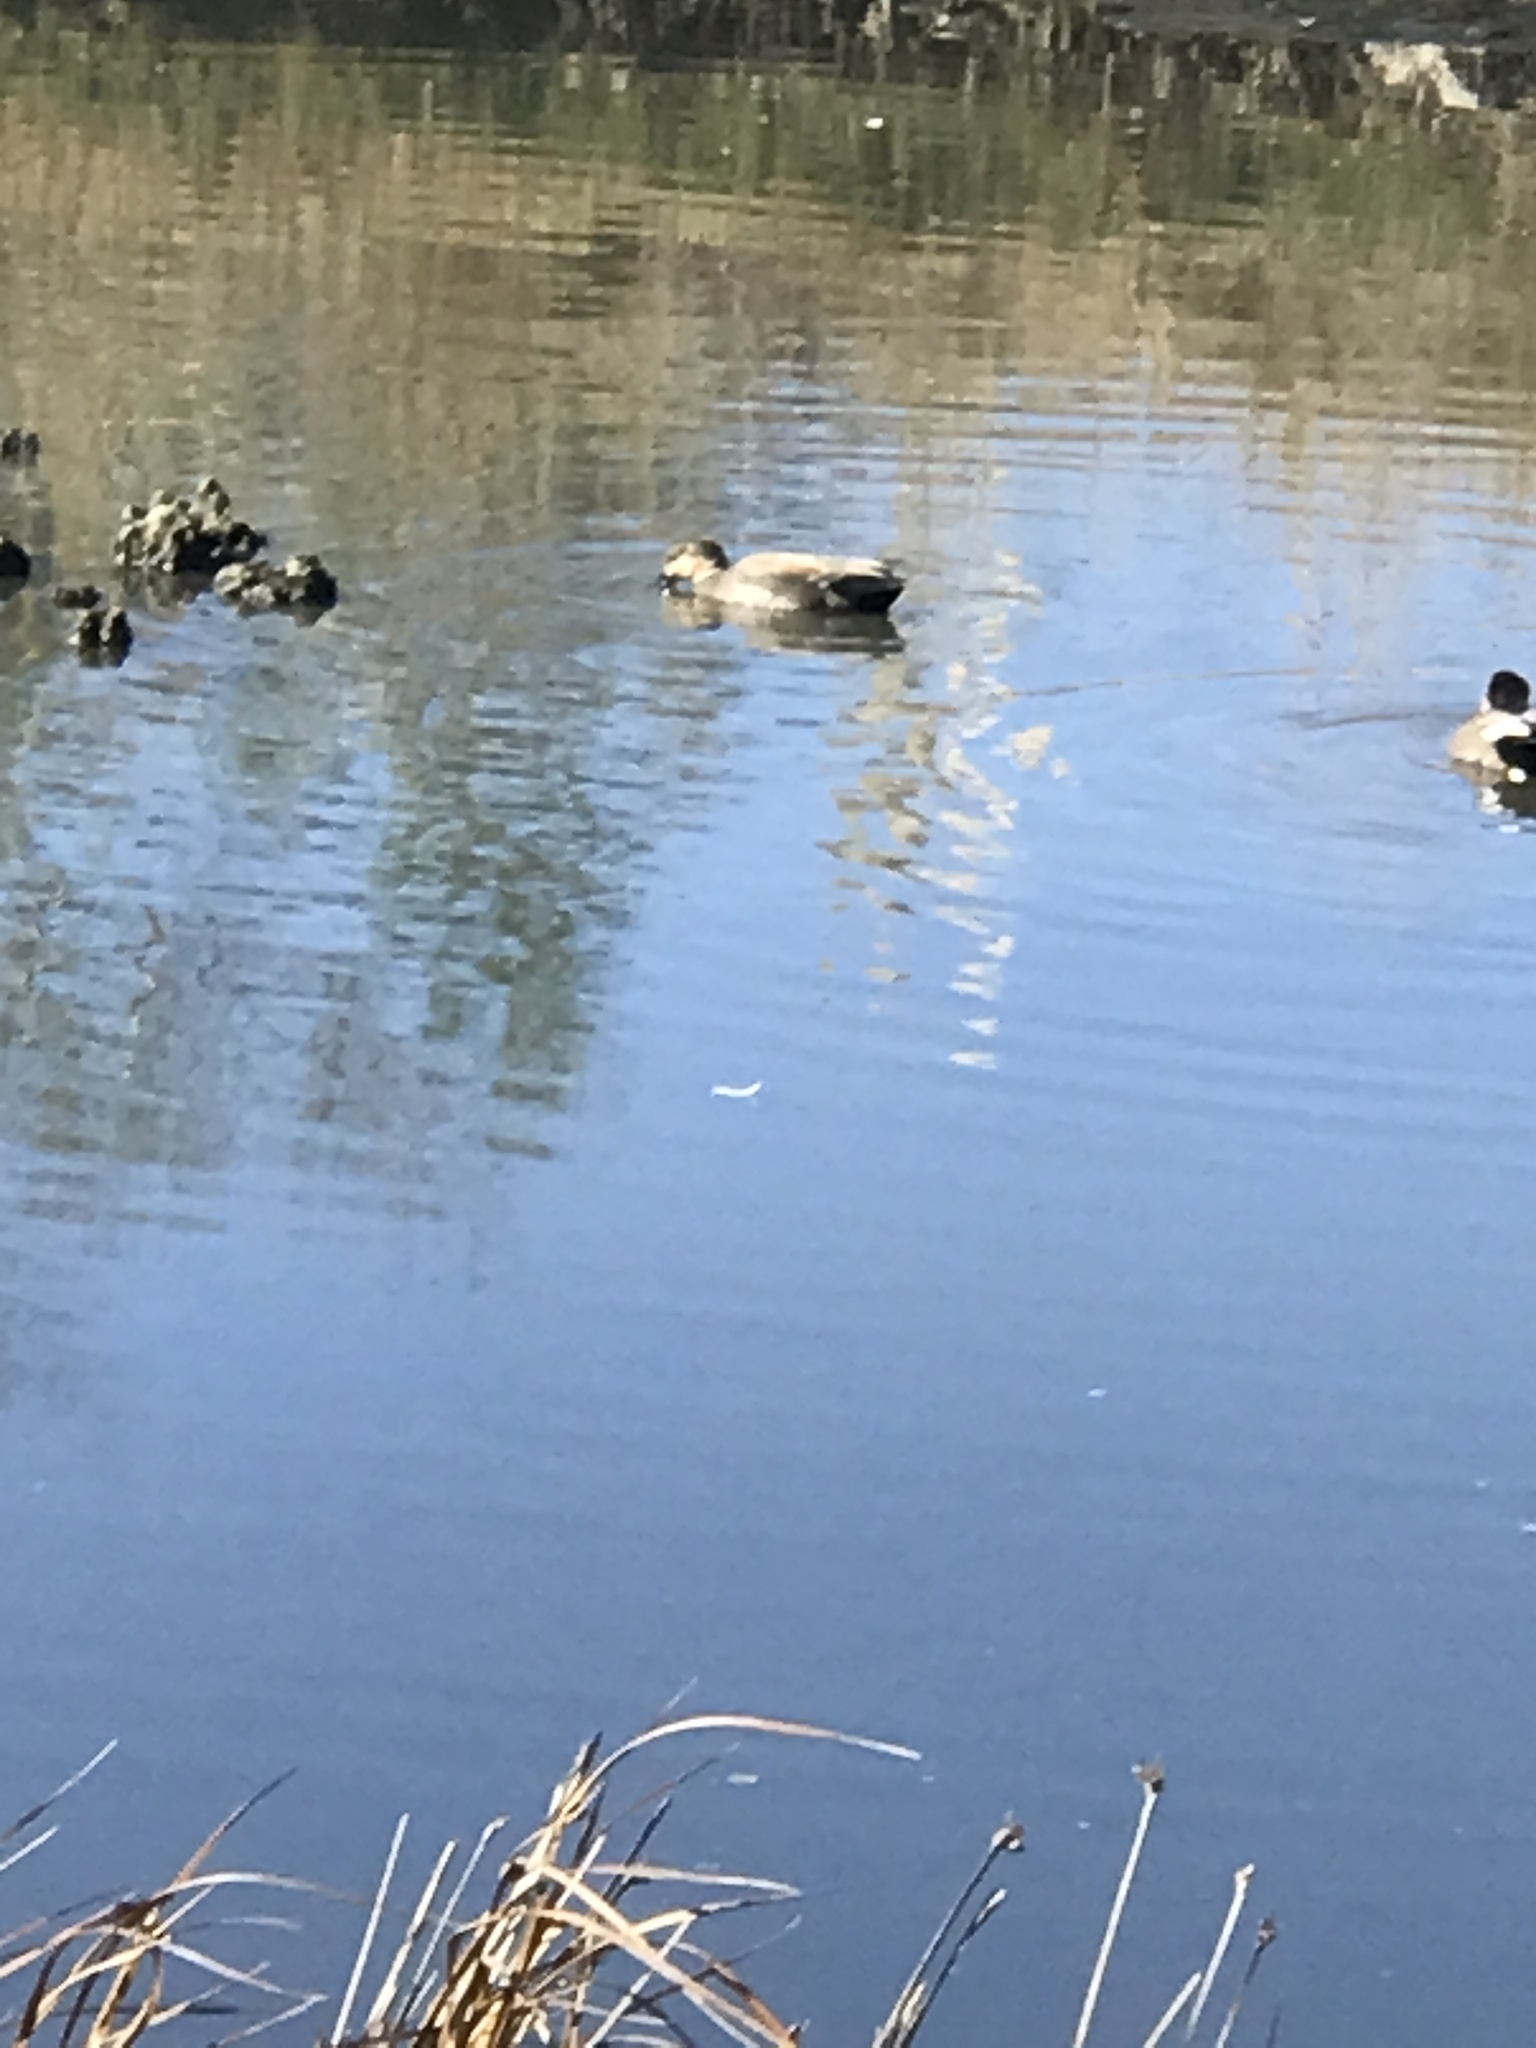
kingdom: Animalia
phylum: Chordata
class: Aves
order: Anseriformes
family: Anatidae
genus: Mareca
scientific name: Mareca strepera
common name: Gadwall
